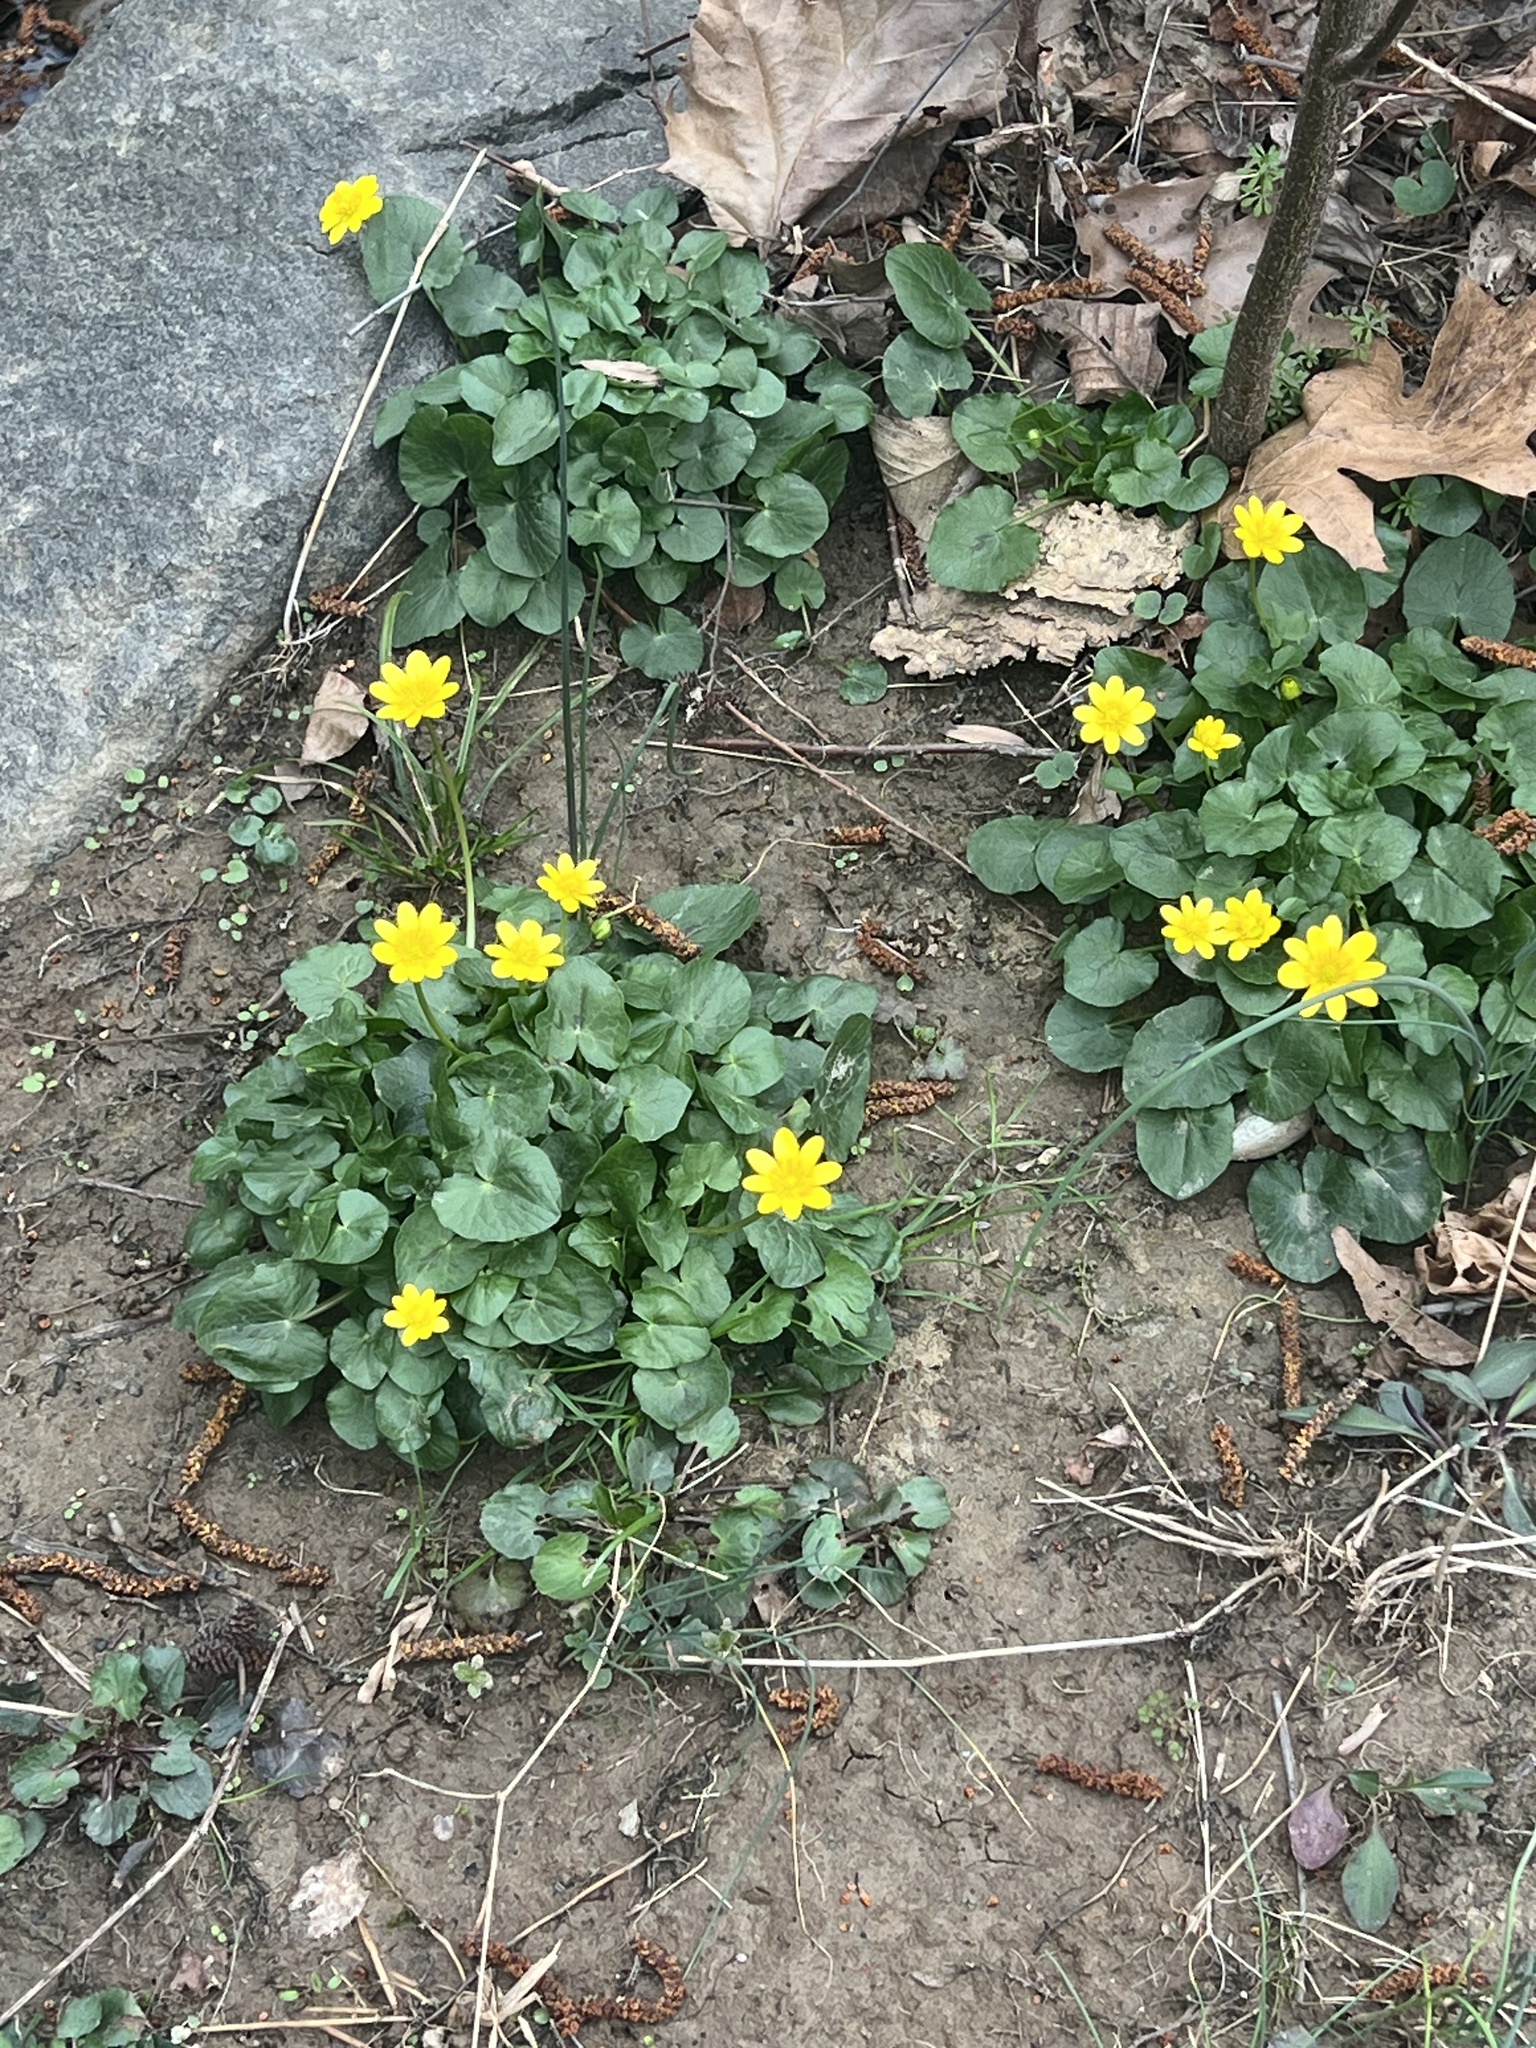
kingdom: Plantae
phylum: Tracheophyta
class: Magnoliopsida
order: Ranunculales
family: Ranunculaceae
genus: Ficaria
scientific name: Ficaria verna
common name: Lesser celandine
